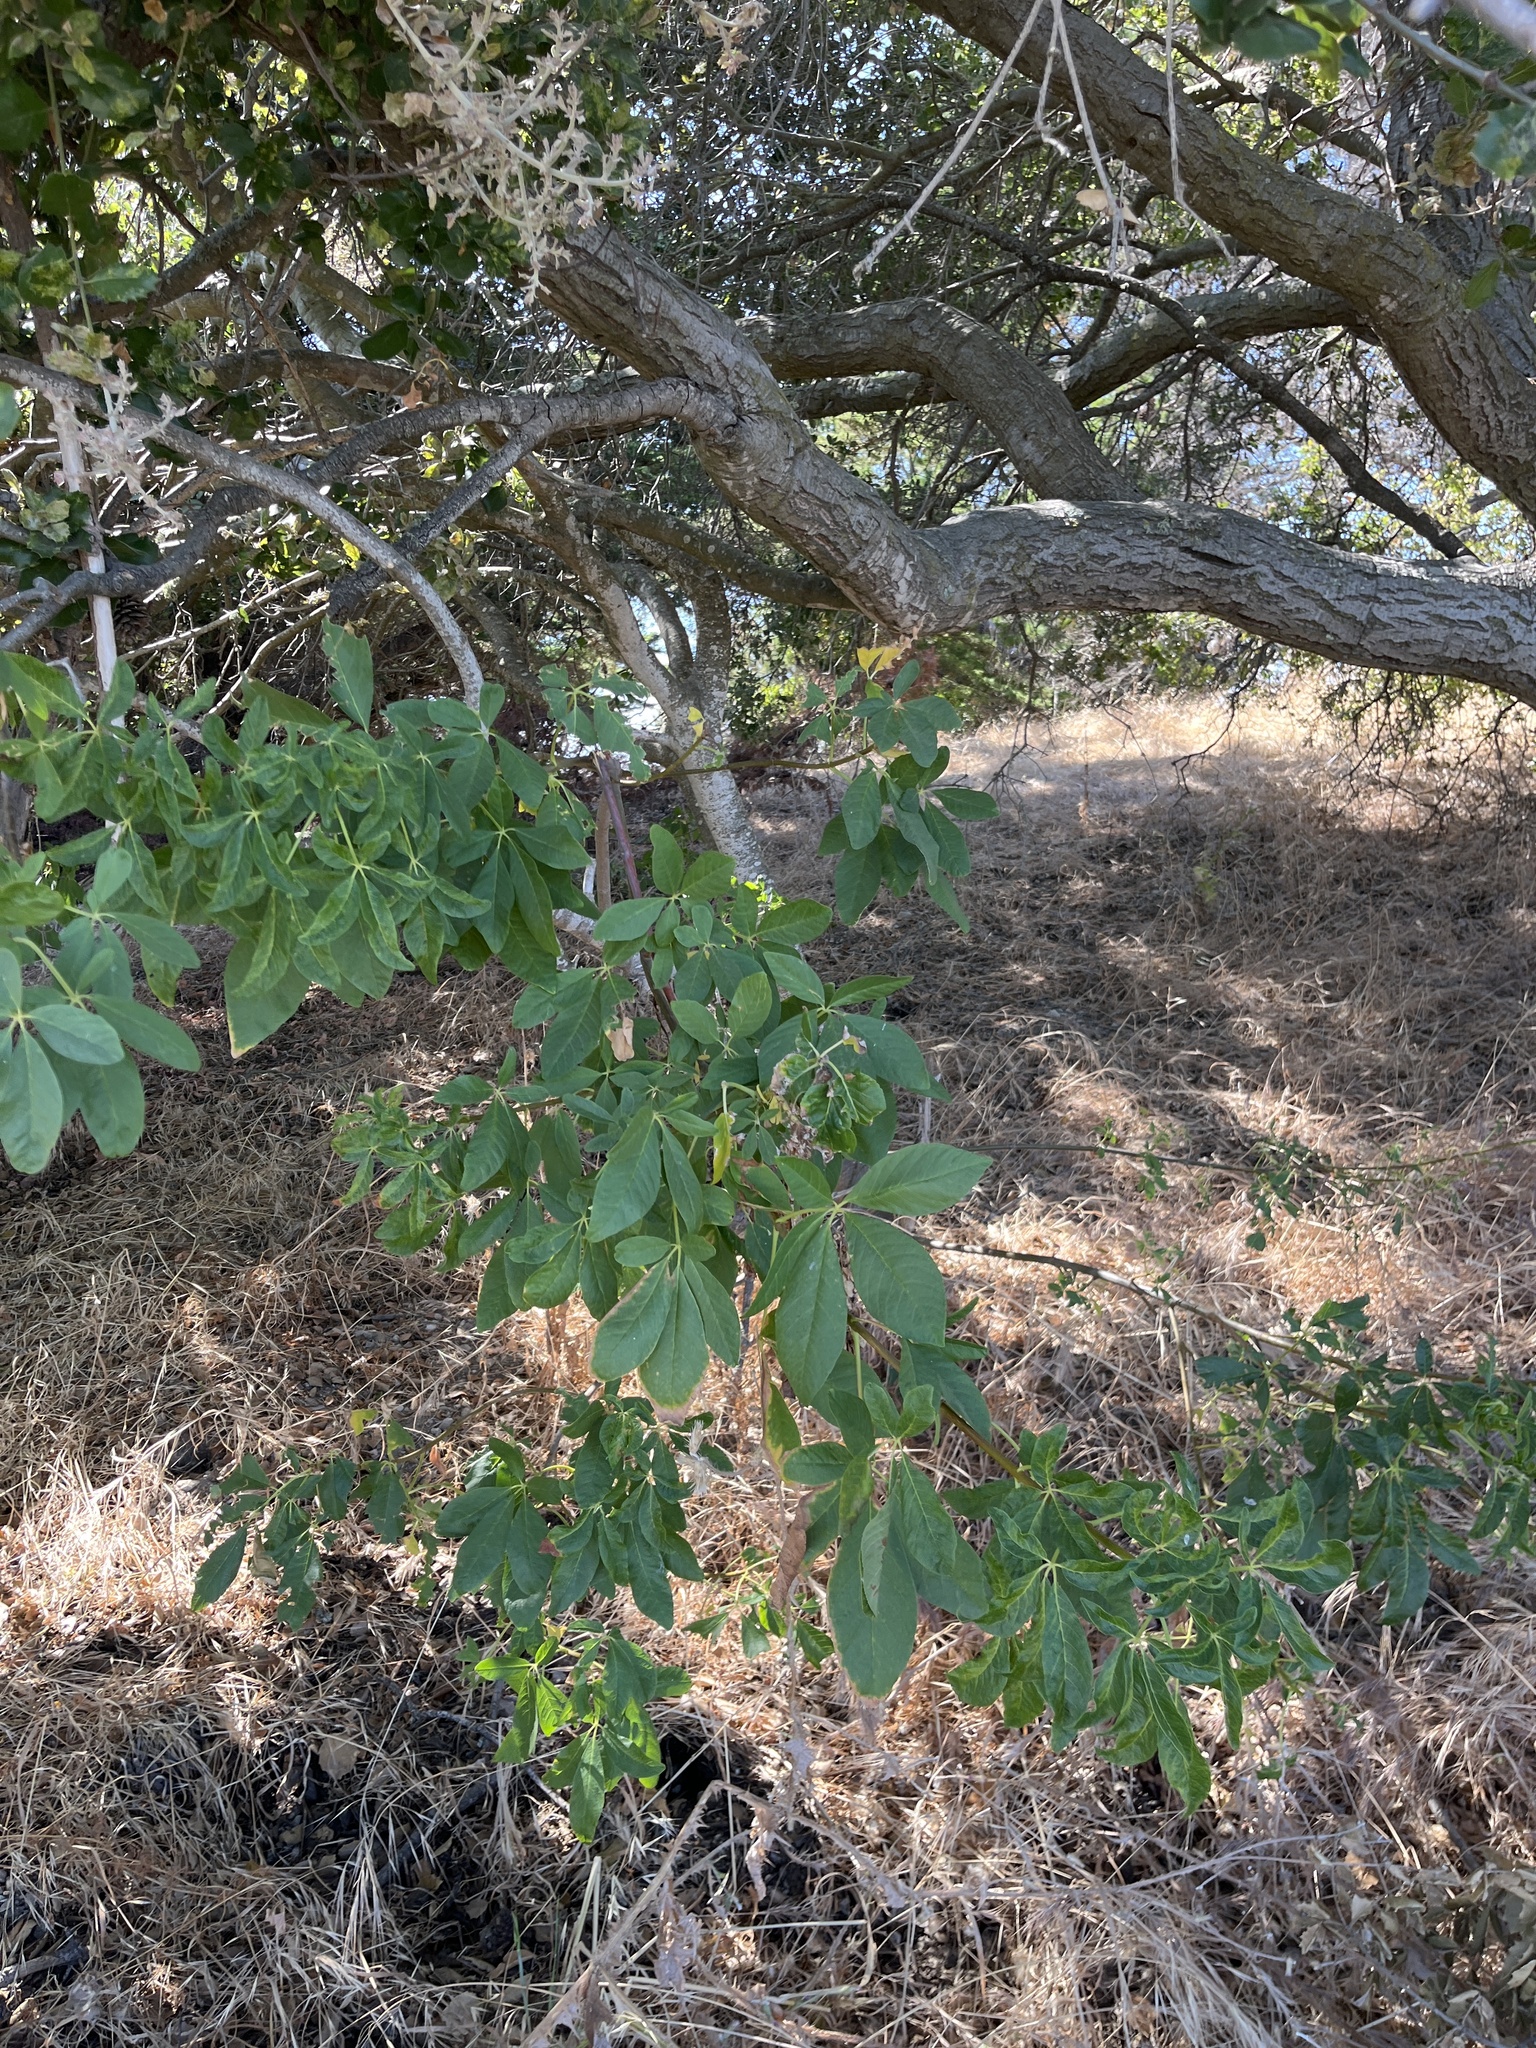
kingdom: Plantae
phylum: Tracheophyta
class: Magnoliopsida
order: Sapindales
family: Sapindaceae
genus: Aesculus
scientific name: Aesculus californica
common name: California buckeye
